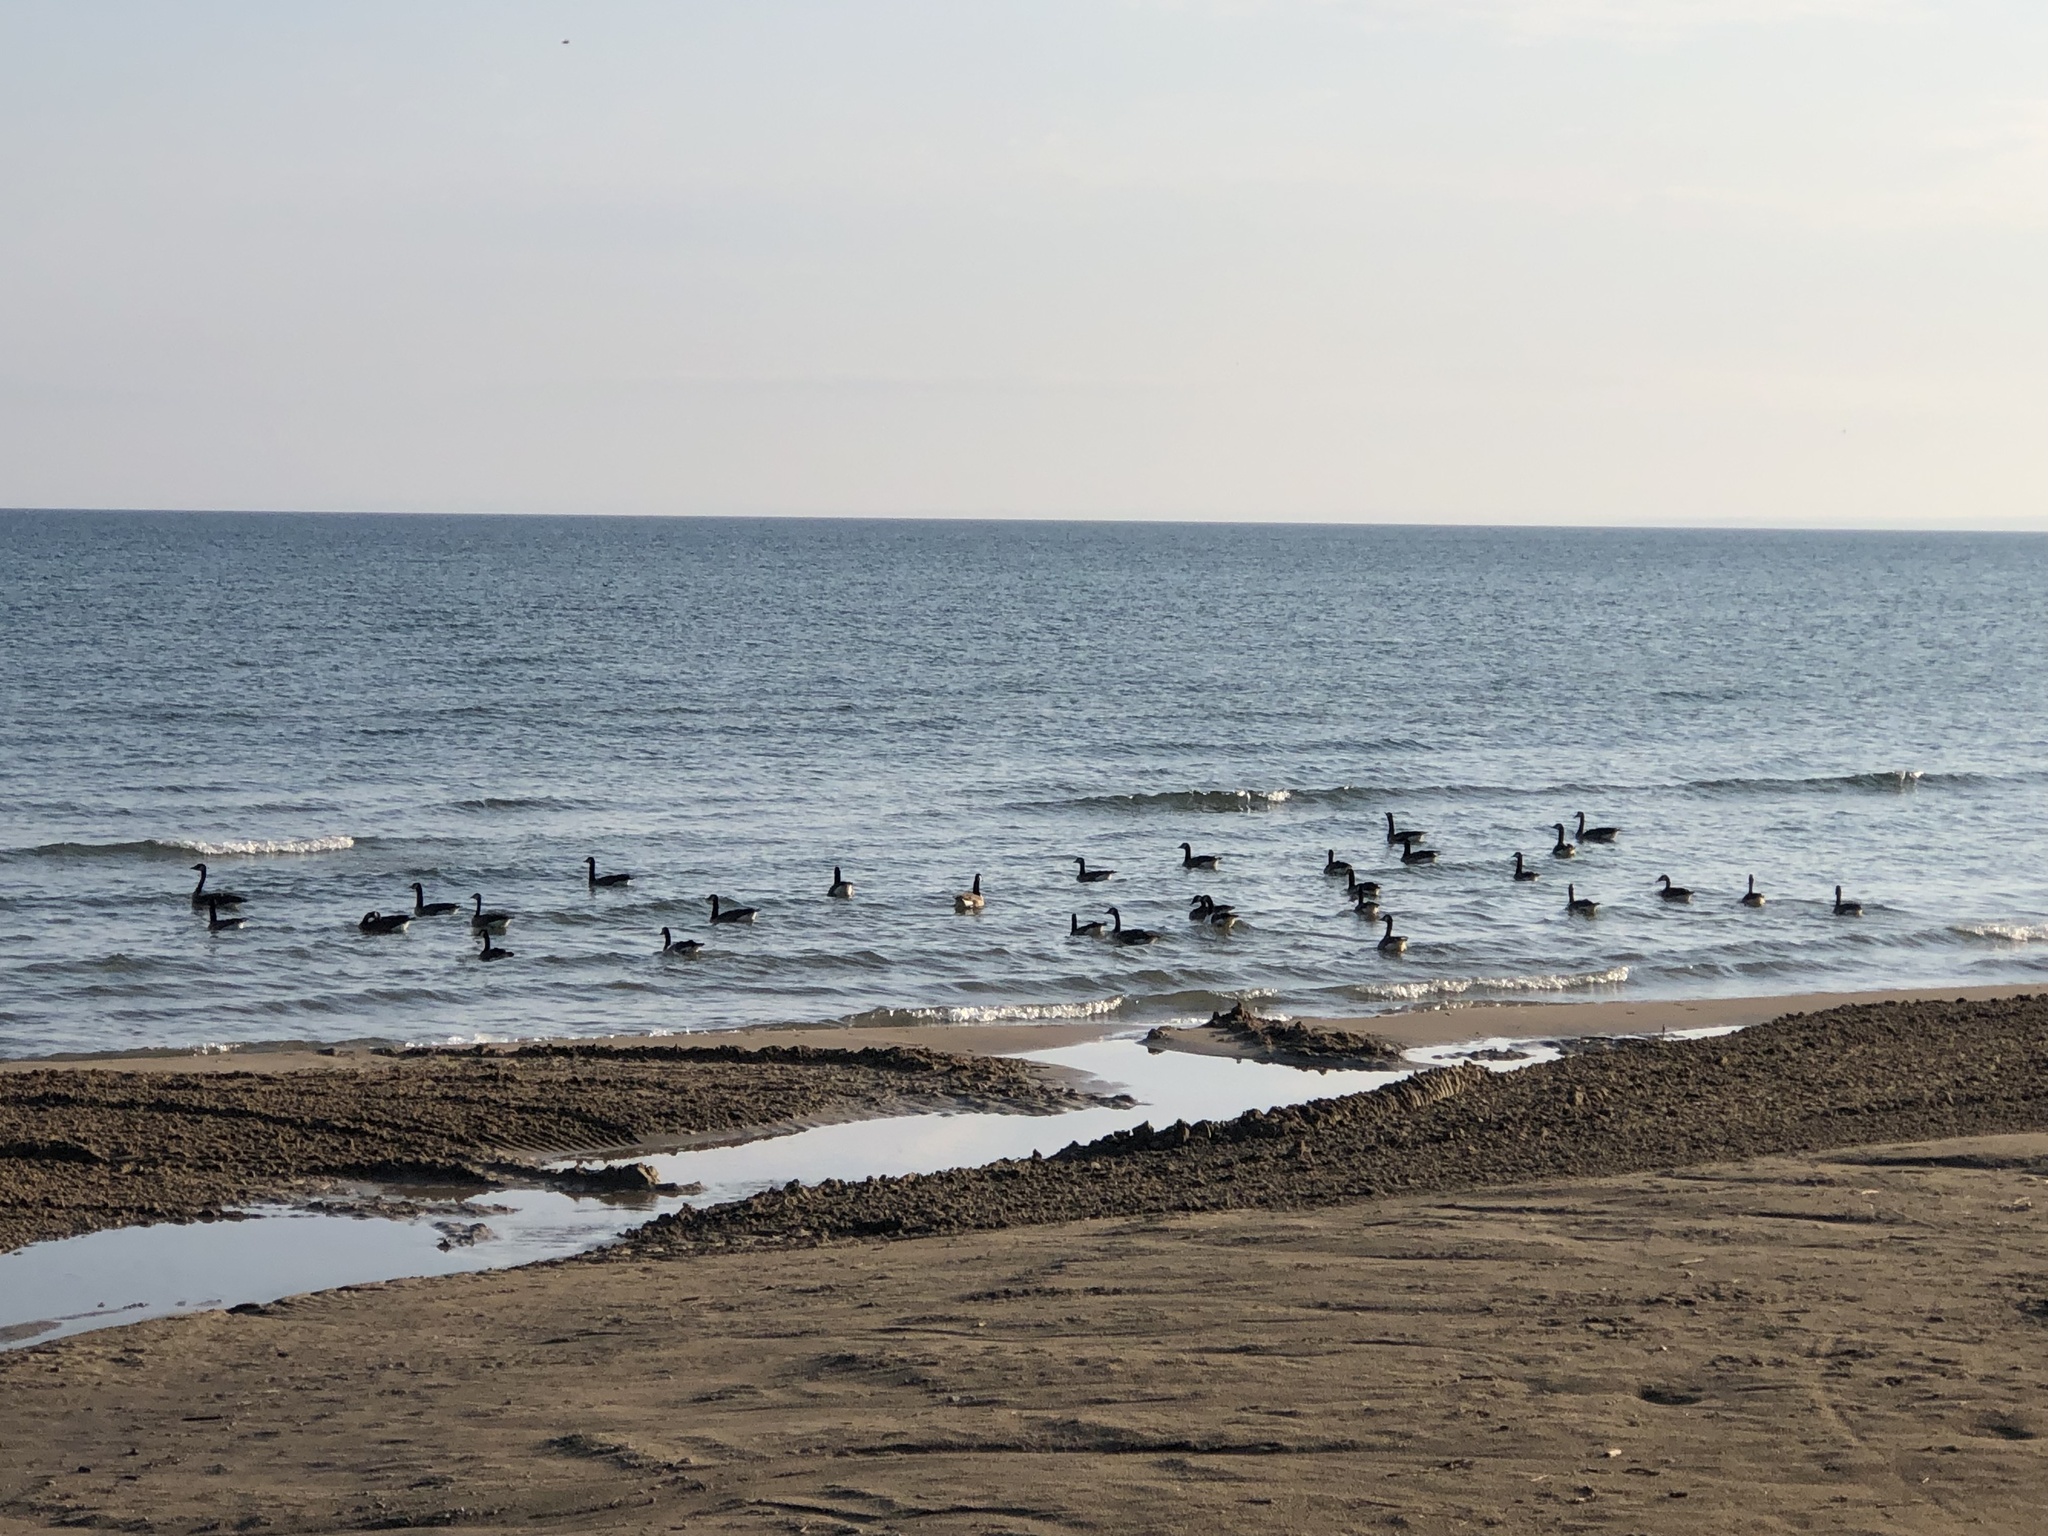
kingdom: Animalia
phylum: Chordata
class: Aves
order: Anseriformes
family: Anatidae
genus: Branta
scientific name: Branta canadensis
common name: Canada goose
